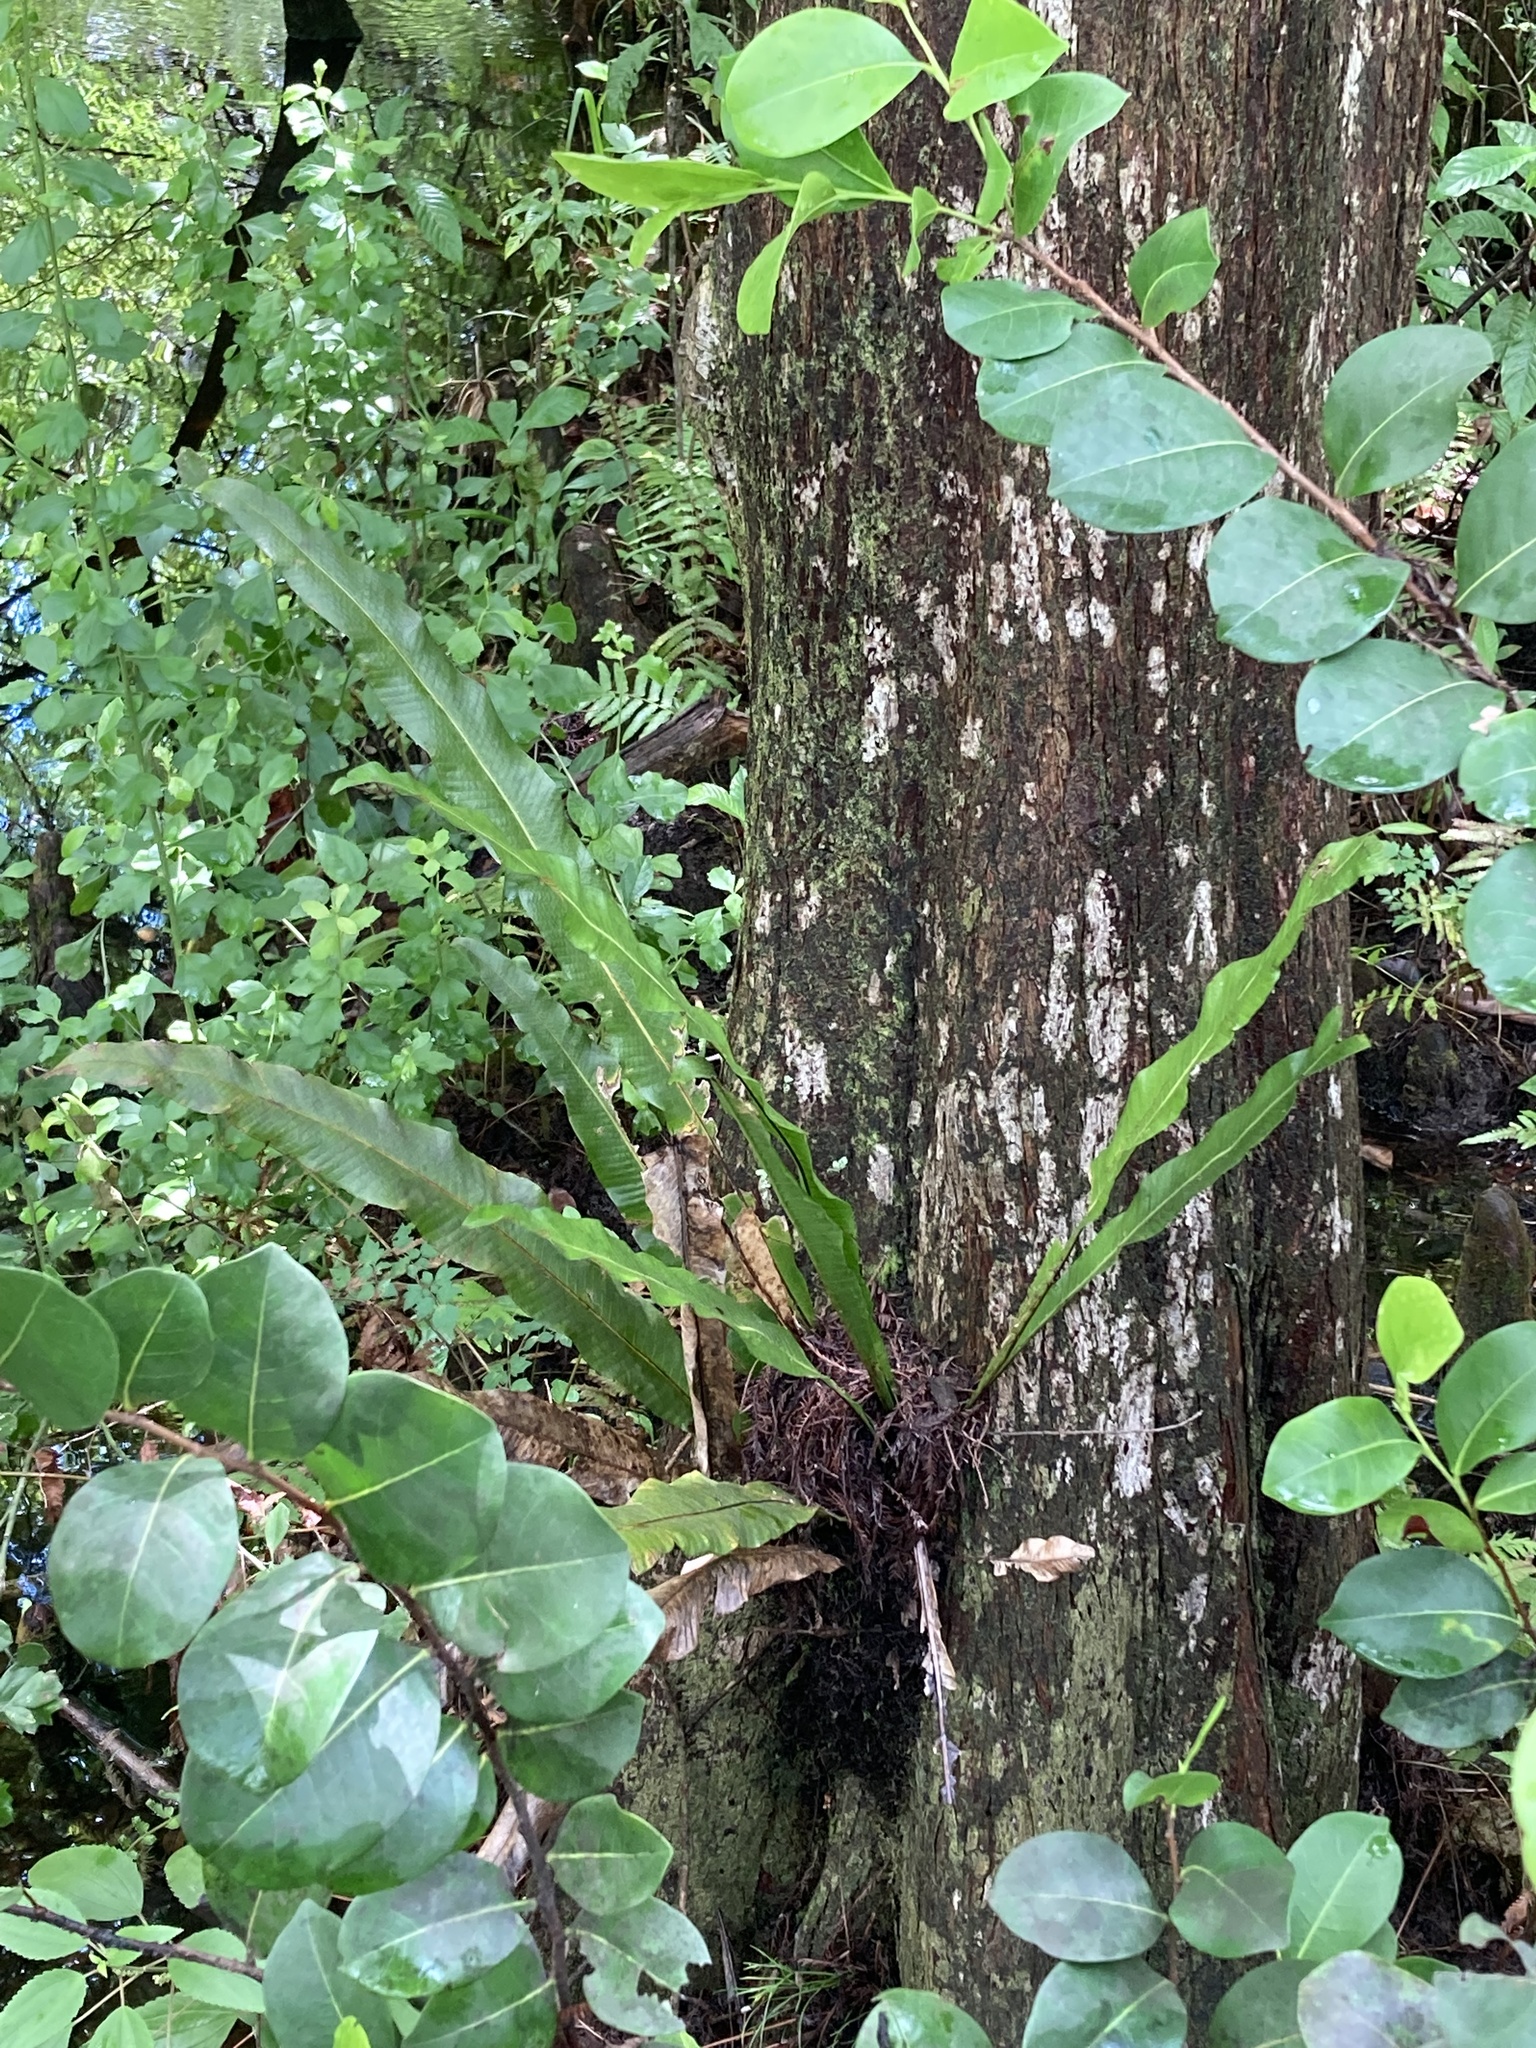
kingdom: Plantae
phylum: Tracheophyta
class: Polypodiopsida
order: Polypodiales
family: Polypodiaceae
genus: Campyloneurum
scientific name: Campyloneurum phyllitidis
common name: Cow-tongue fern
